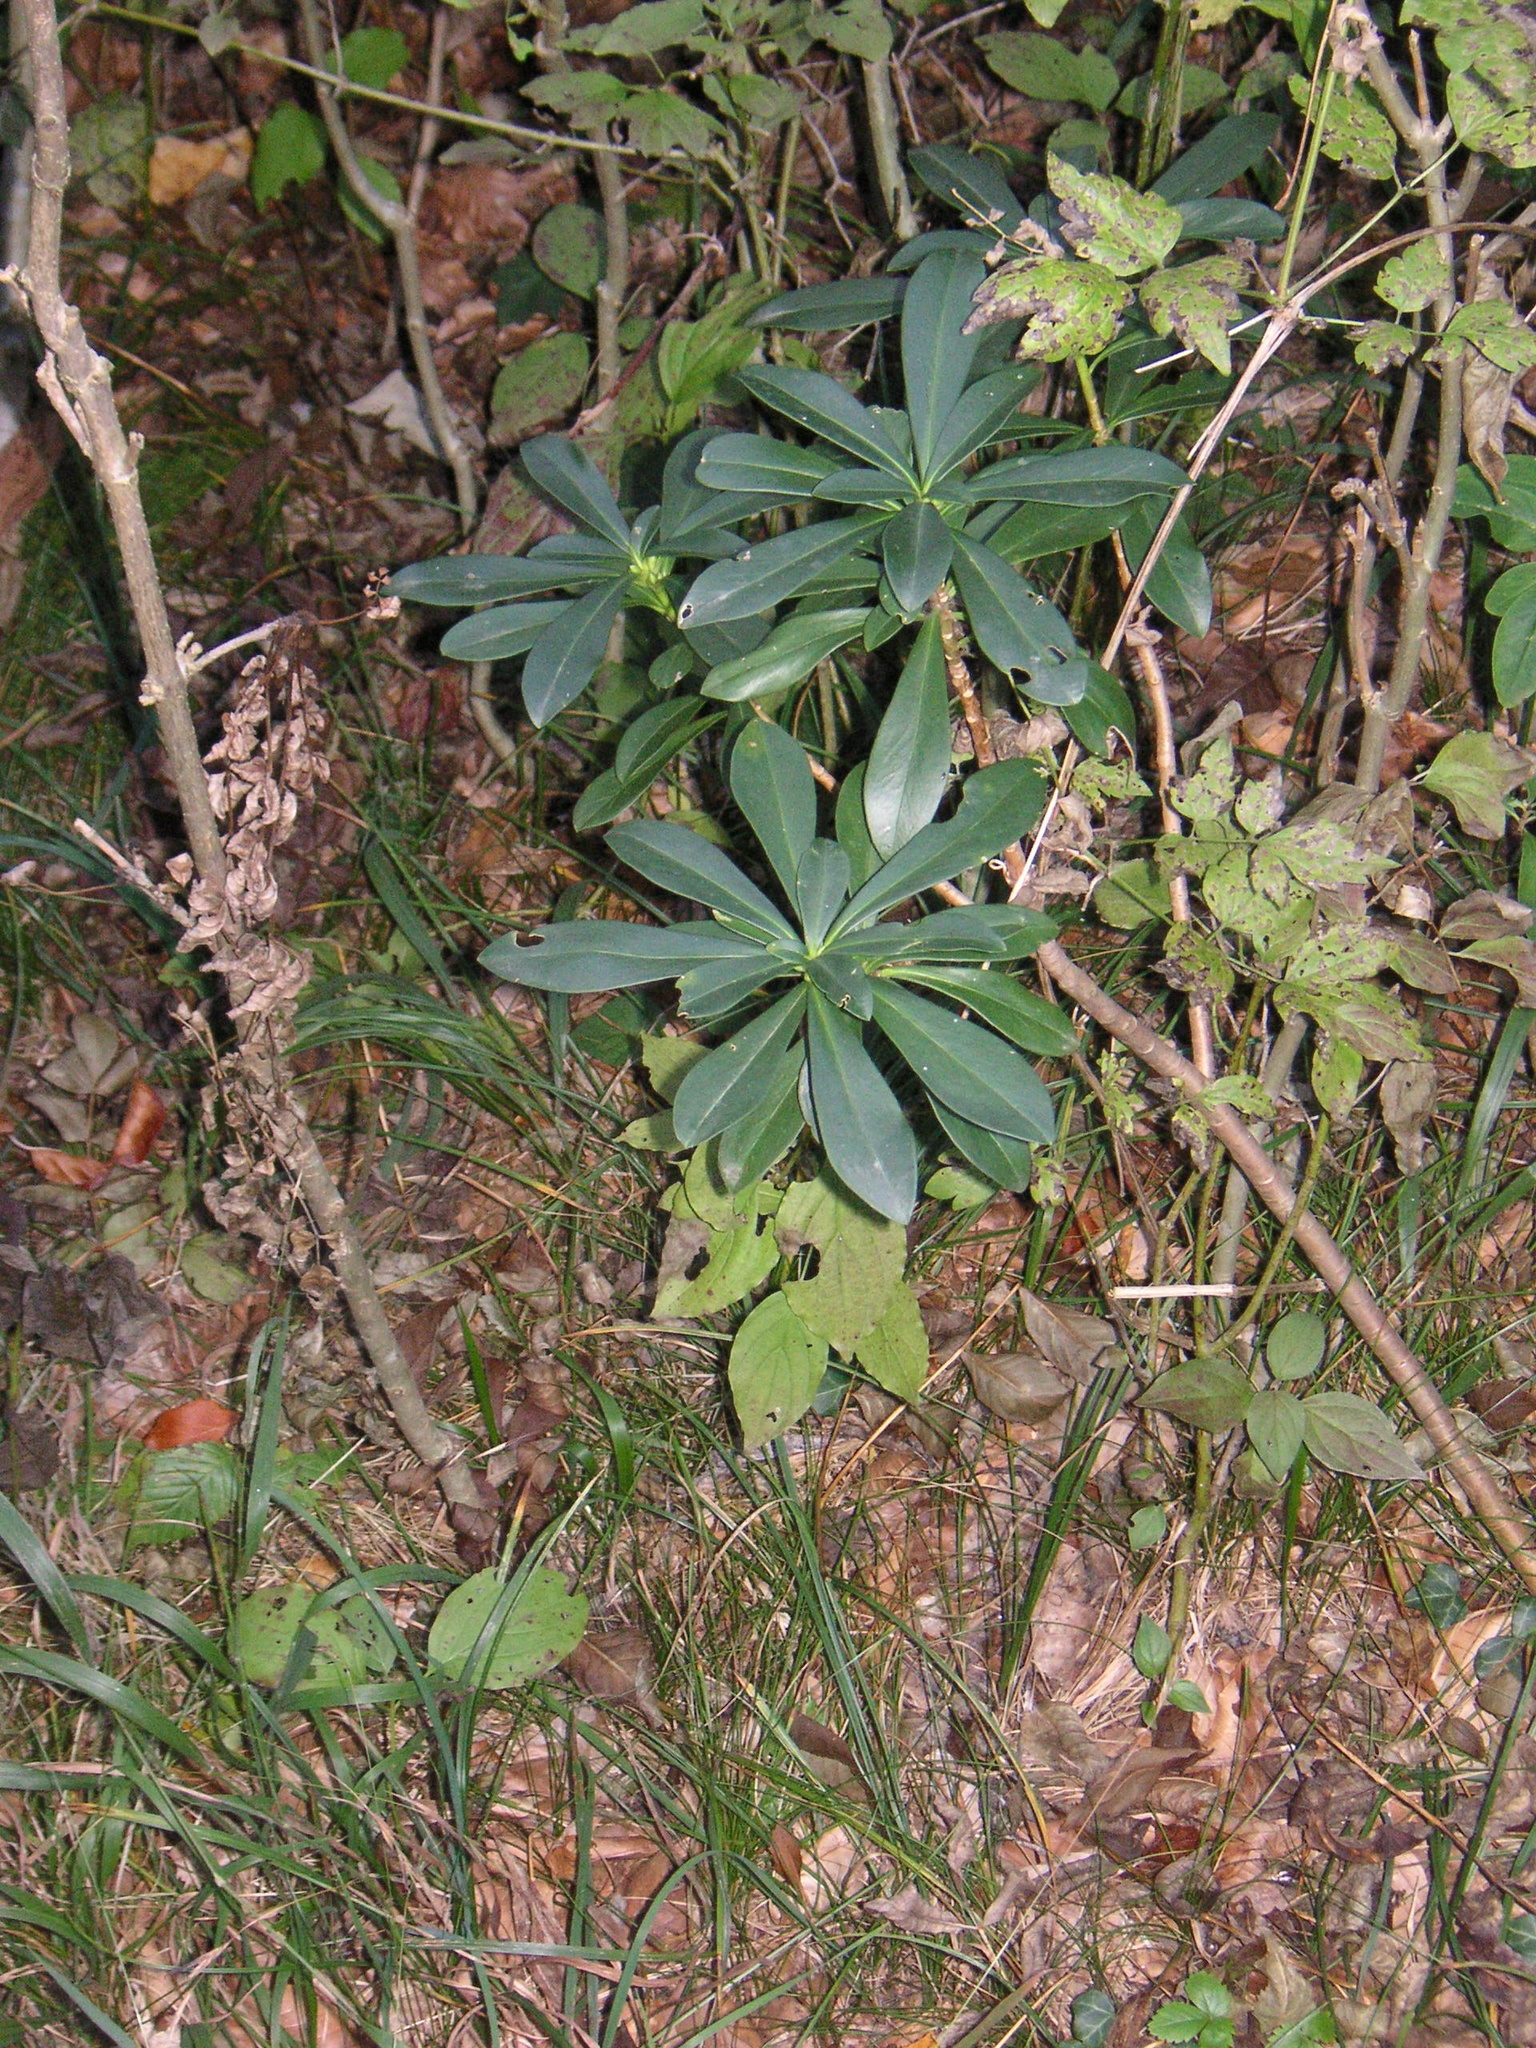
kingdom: Plantae
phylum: Tracheophyta
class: Magnoliopsida
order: Malvales
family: Thymelaeaceae
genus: Daphne
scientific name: Daphne laureola
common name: Spurge-laurel
